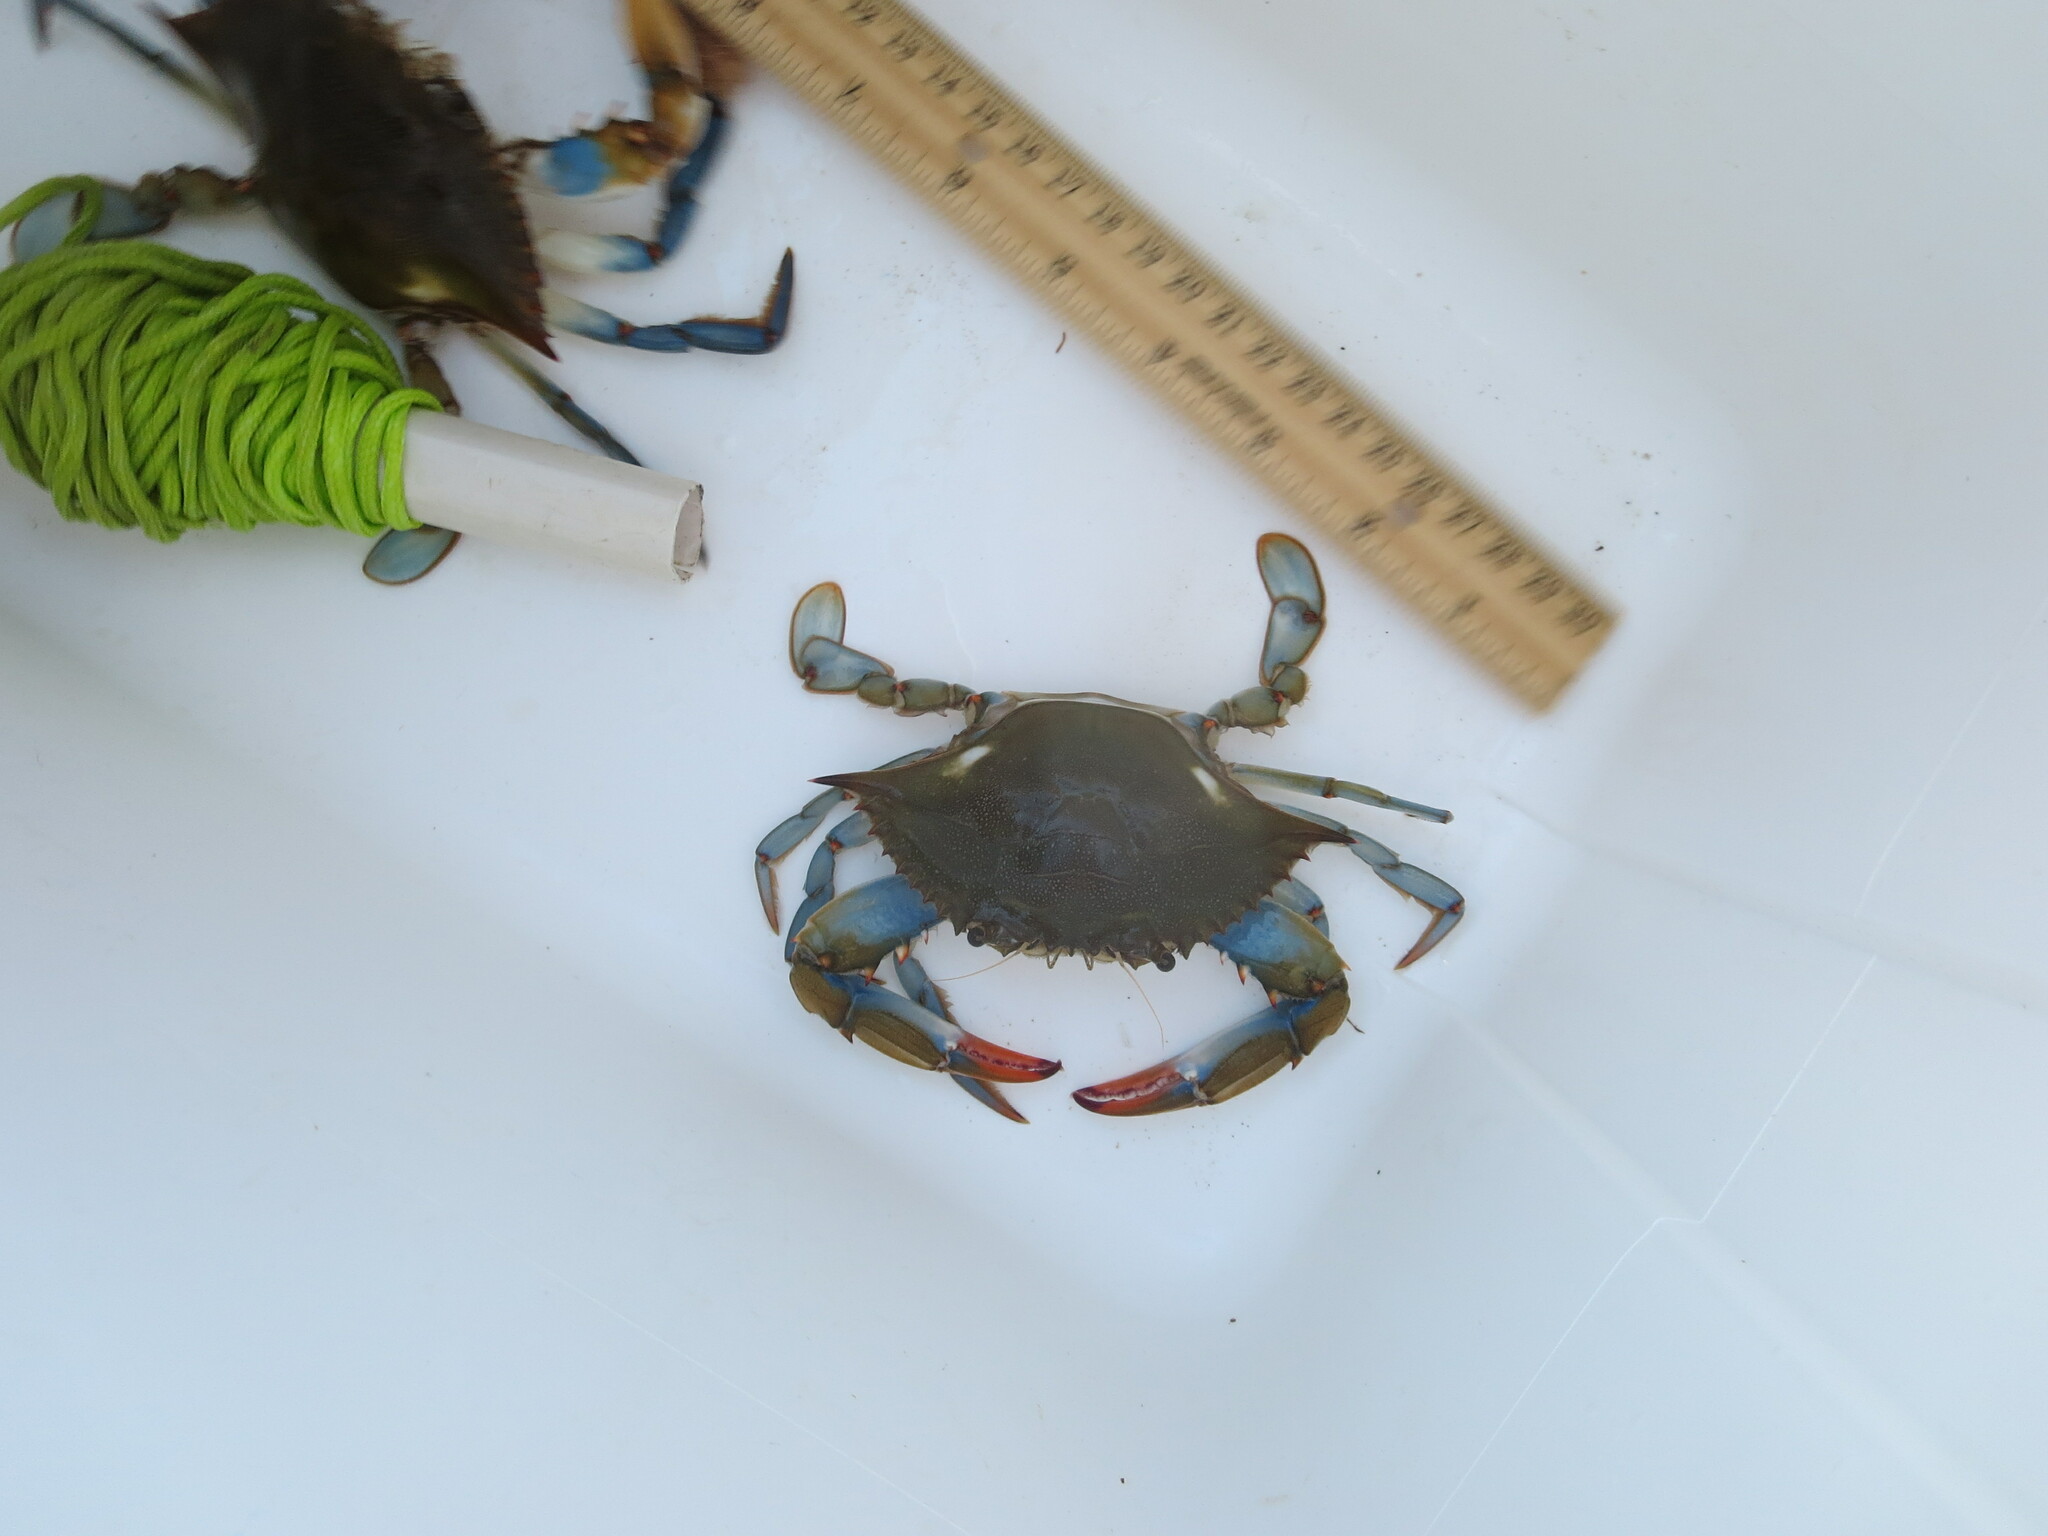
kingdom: Animalia
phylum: Arthropoda
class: Malacostraca
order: Decapoda
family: Portunidae
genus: Callinectes
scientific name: Callinectes sapidus
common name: Blue crab
